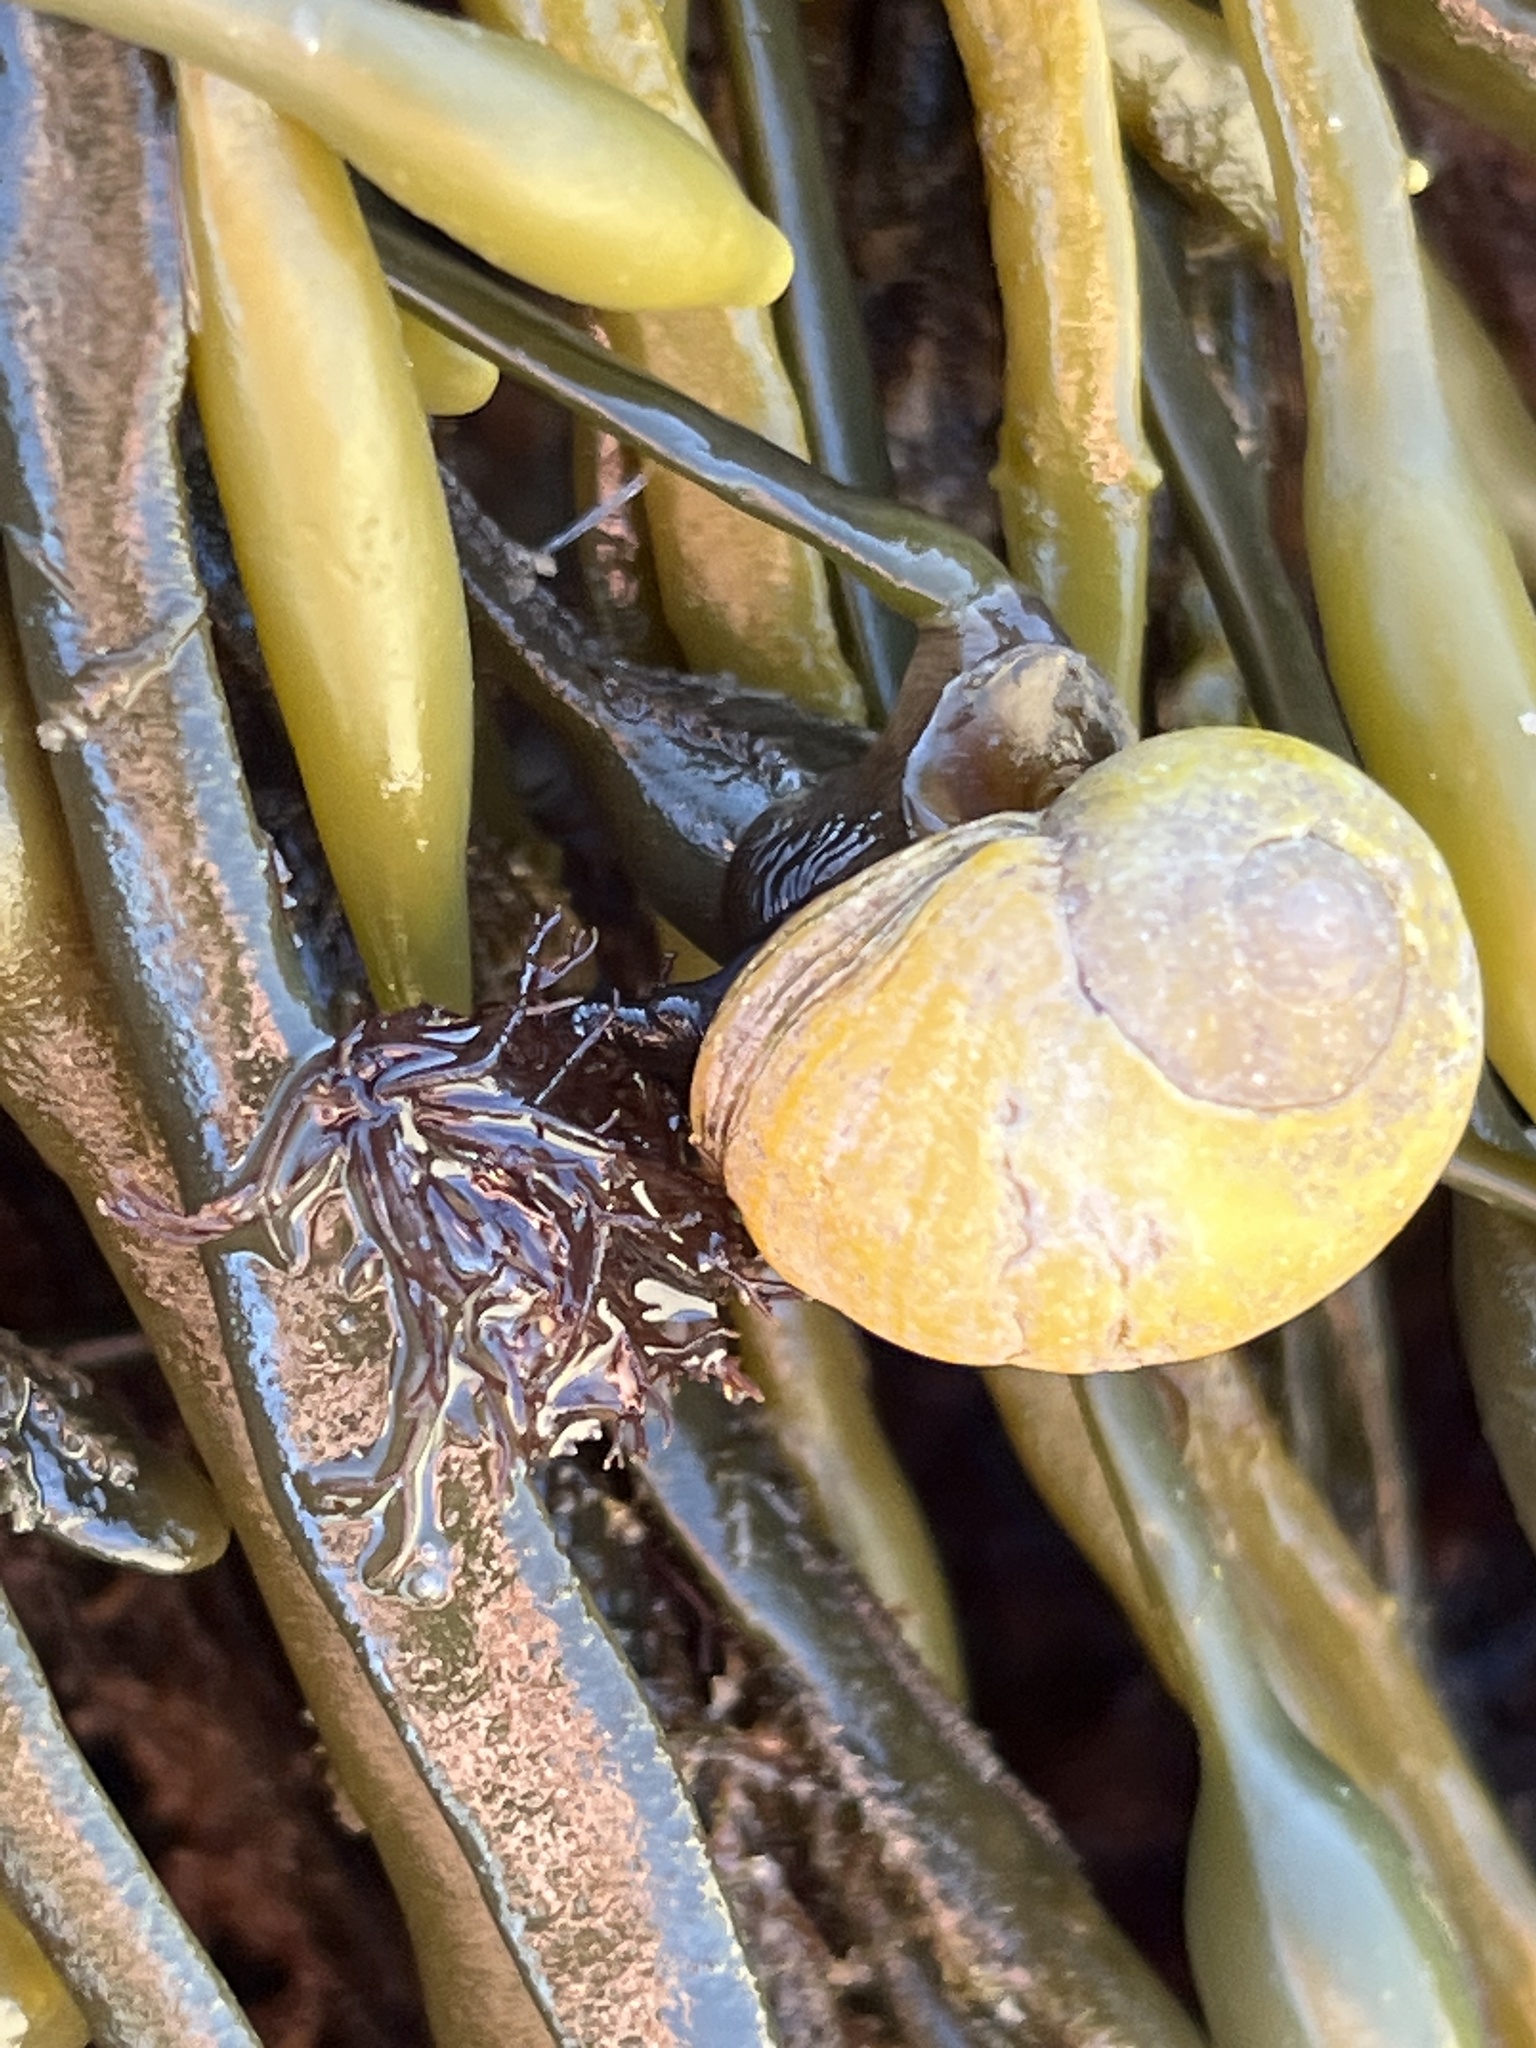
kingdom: Animalia
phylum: Mollusca
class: Gastropoda
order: Littorinimorpha
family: Littorinidae
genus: Littorina
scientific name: Littorina obtusata
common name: Flat periwinkle
